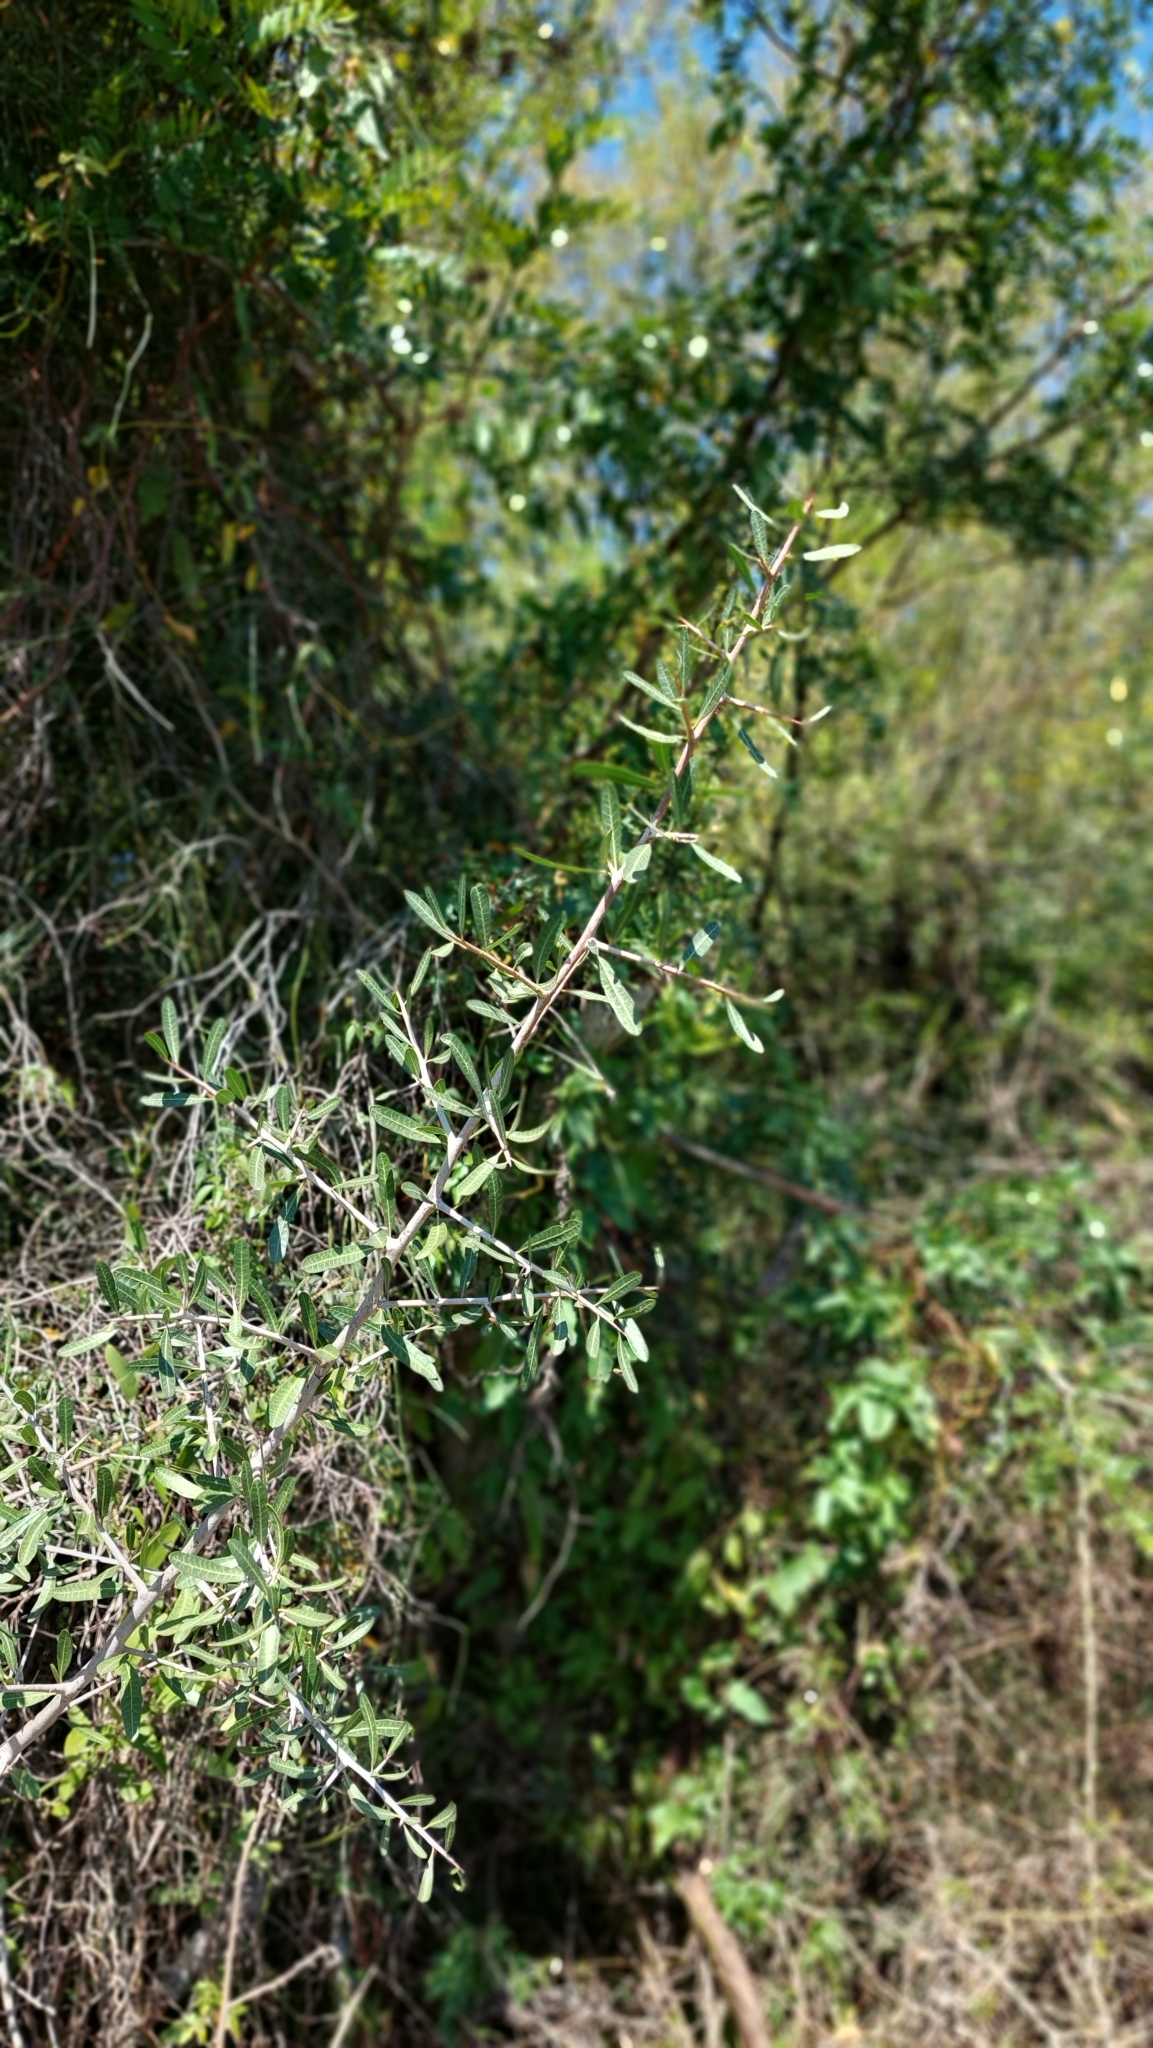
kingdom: Plantae
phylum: Tracheophyta
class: Magnoliopsida
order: Lamiales
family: Verbenaceae
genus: Aloysia
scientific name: Aloysia gratissima
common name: Common bee-brush
